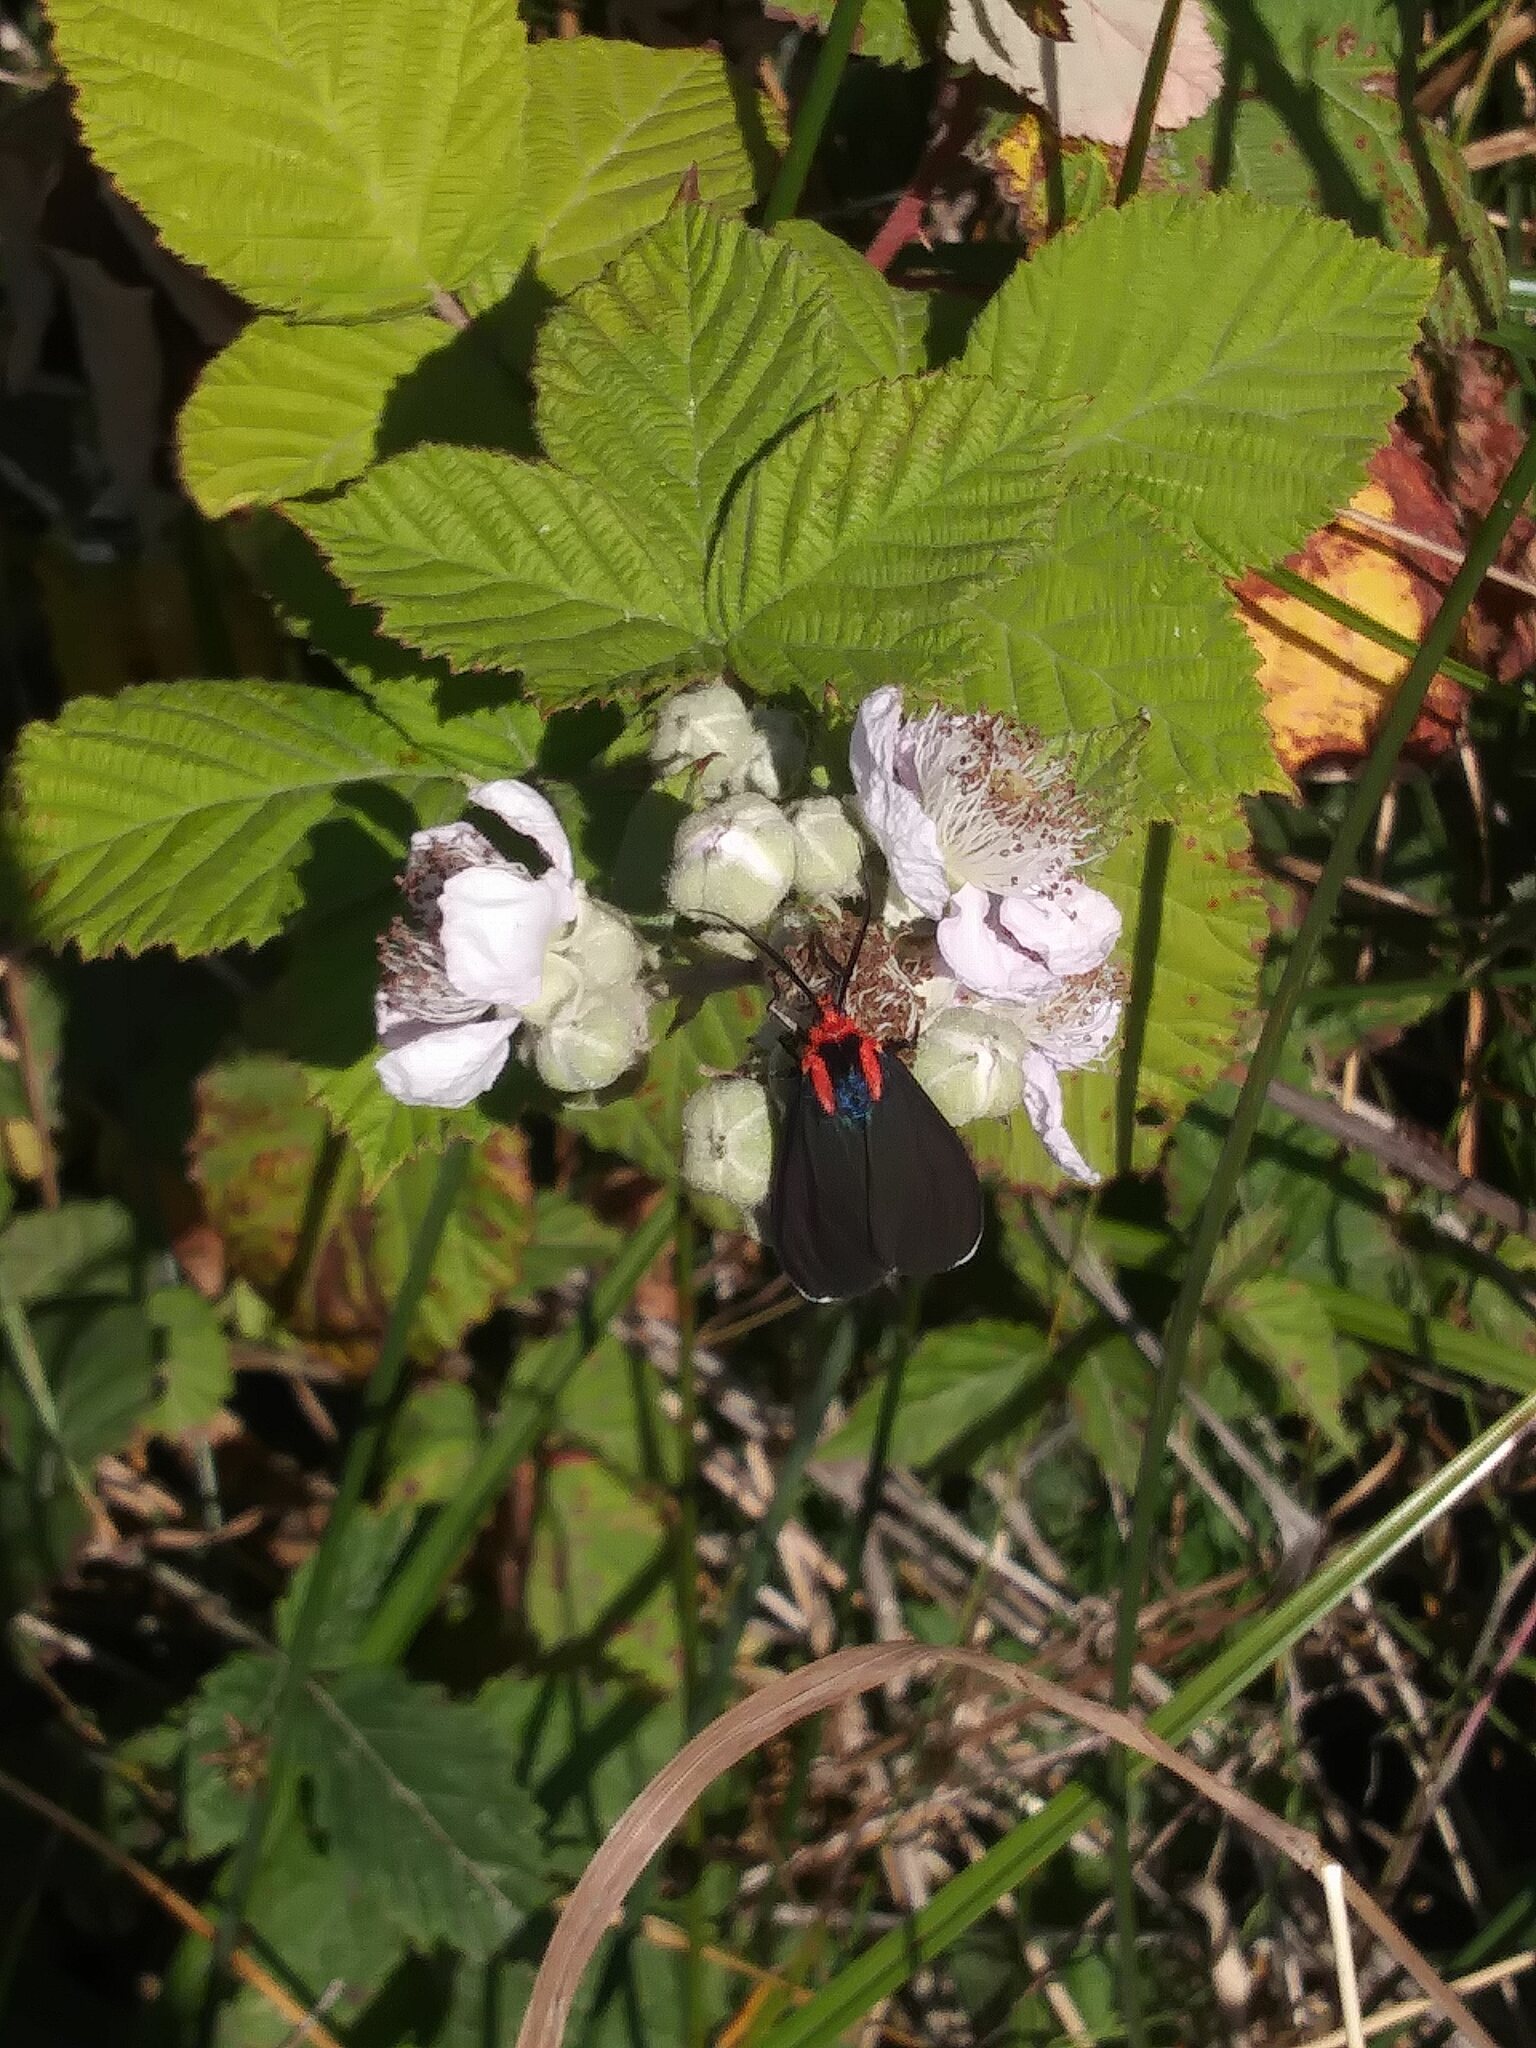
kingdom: Animalia
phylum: Arthropoda
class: Insecta
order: Lepidoptera
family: Erebidae
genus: Ctenucha
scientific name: Ctenucha rubroscapus
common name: Red-shouldered ctenucha
